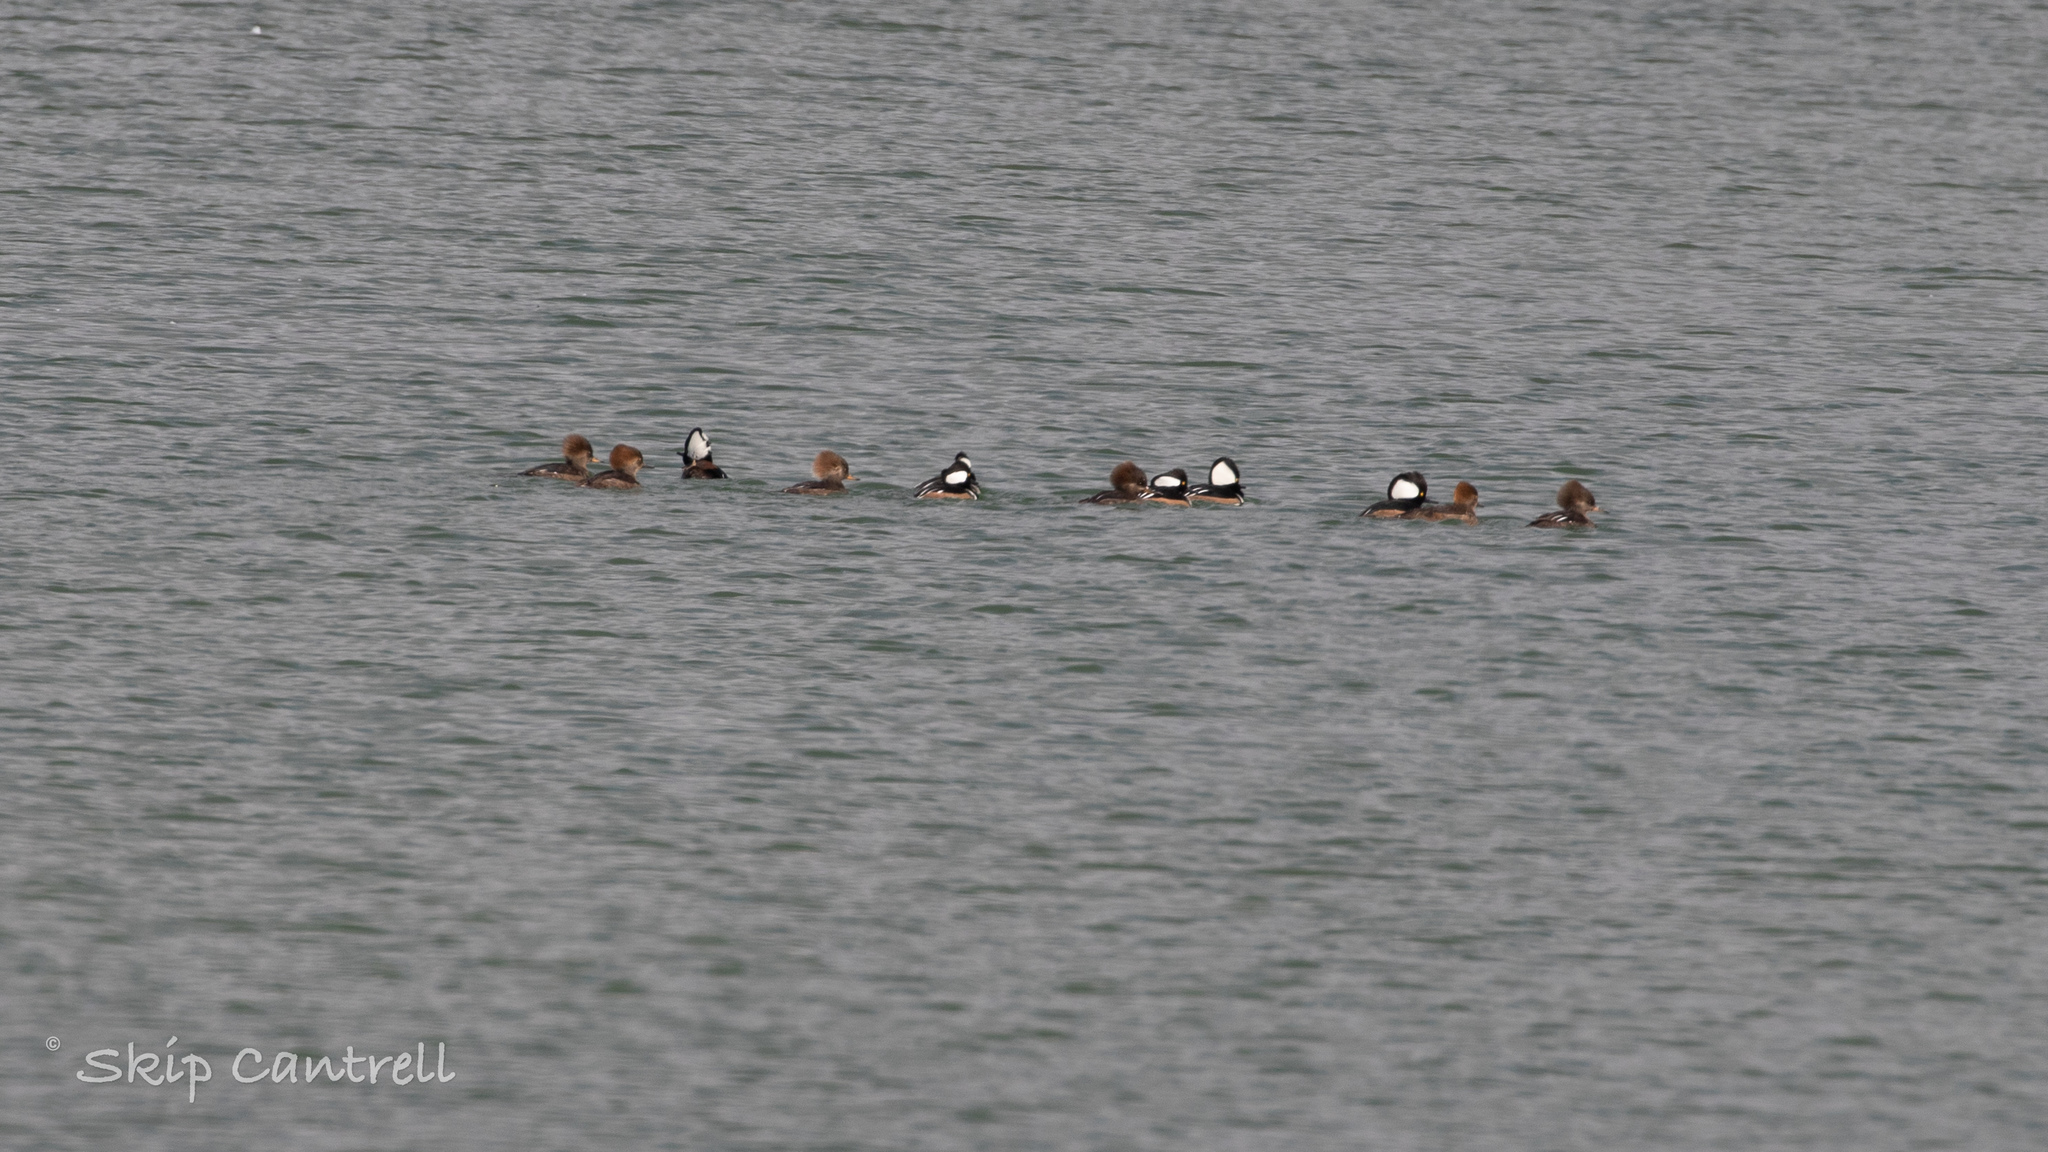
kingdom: Animalia
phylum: Chordata
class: Aves
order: Anseriformes
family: Anatidae
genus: Lophodytes
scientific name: Lophodytes cucullatus
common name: Hooded merganser
